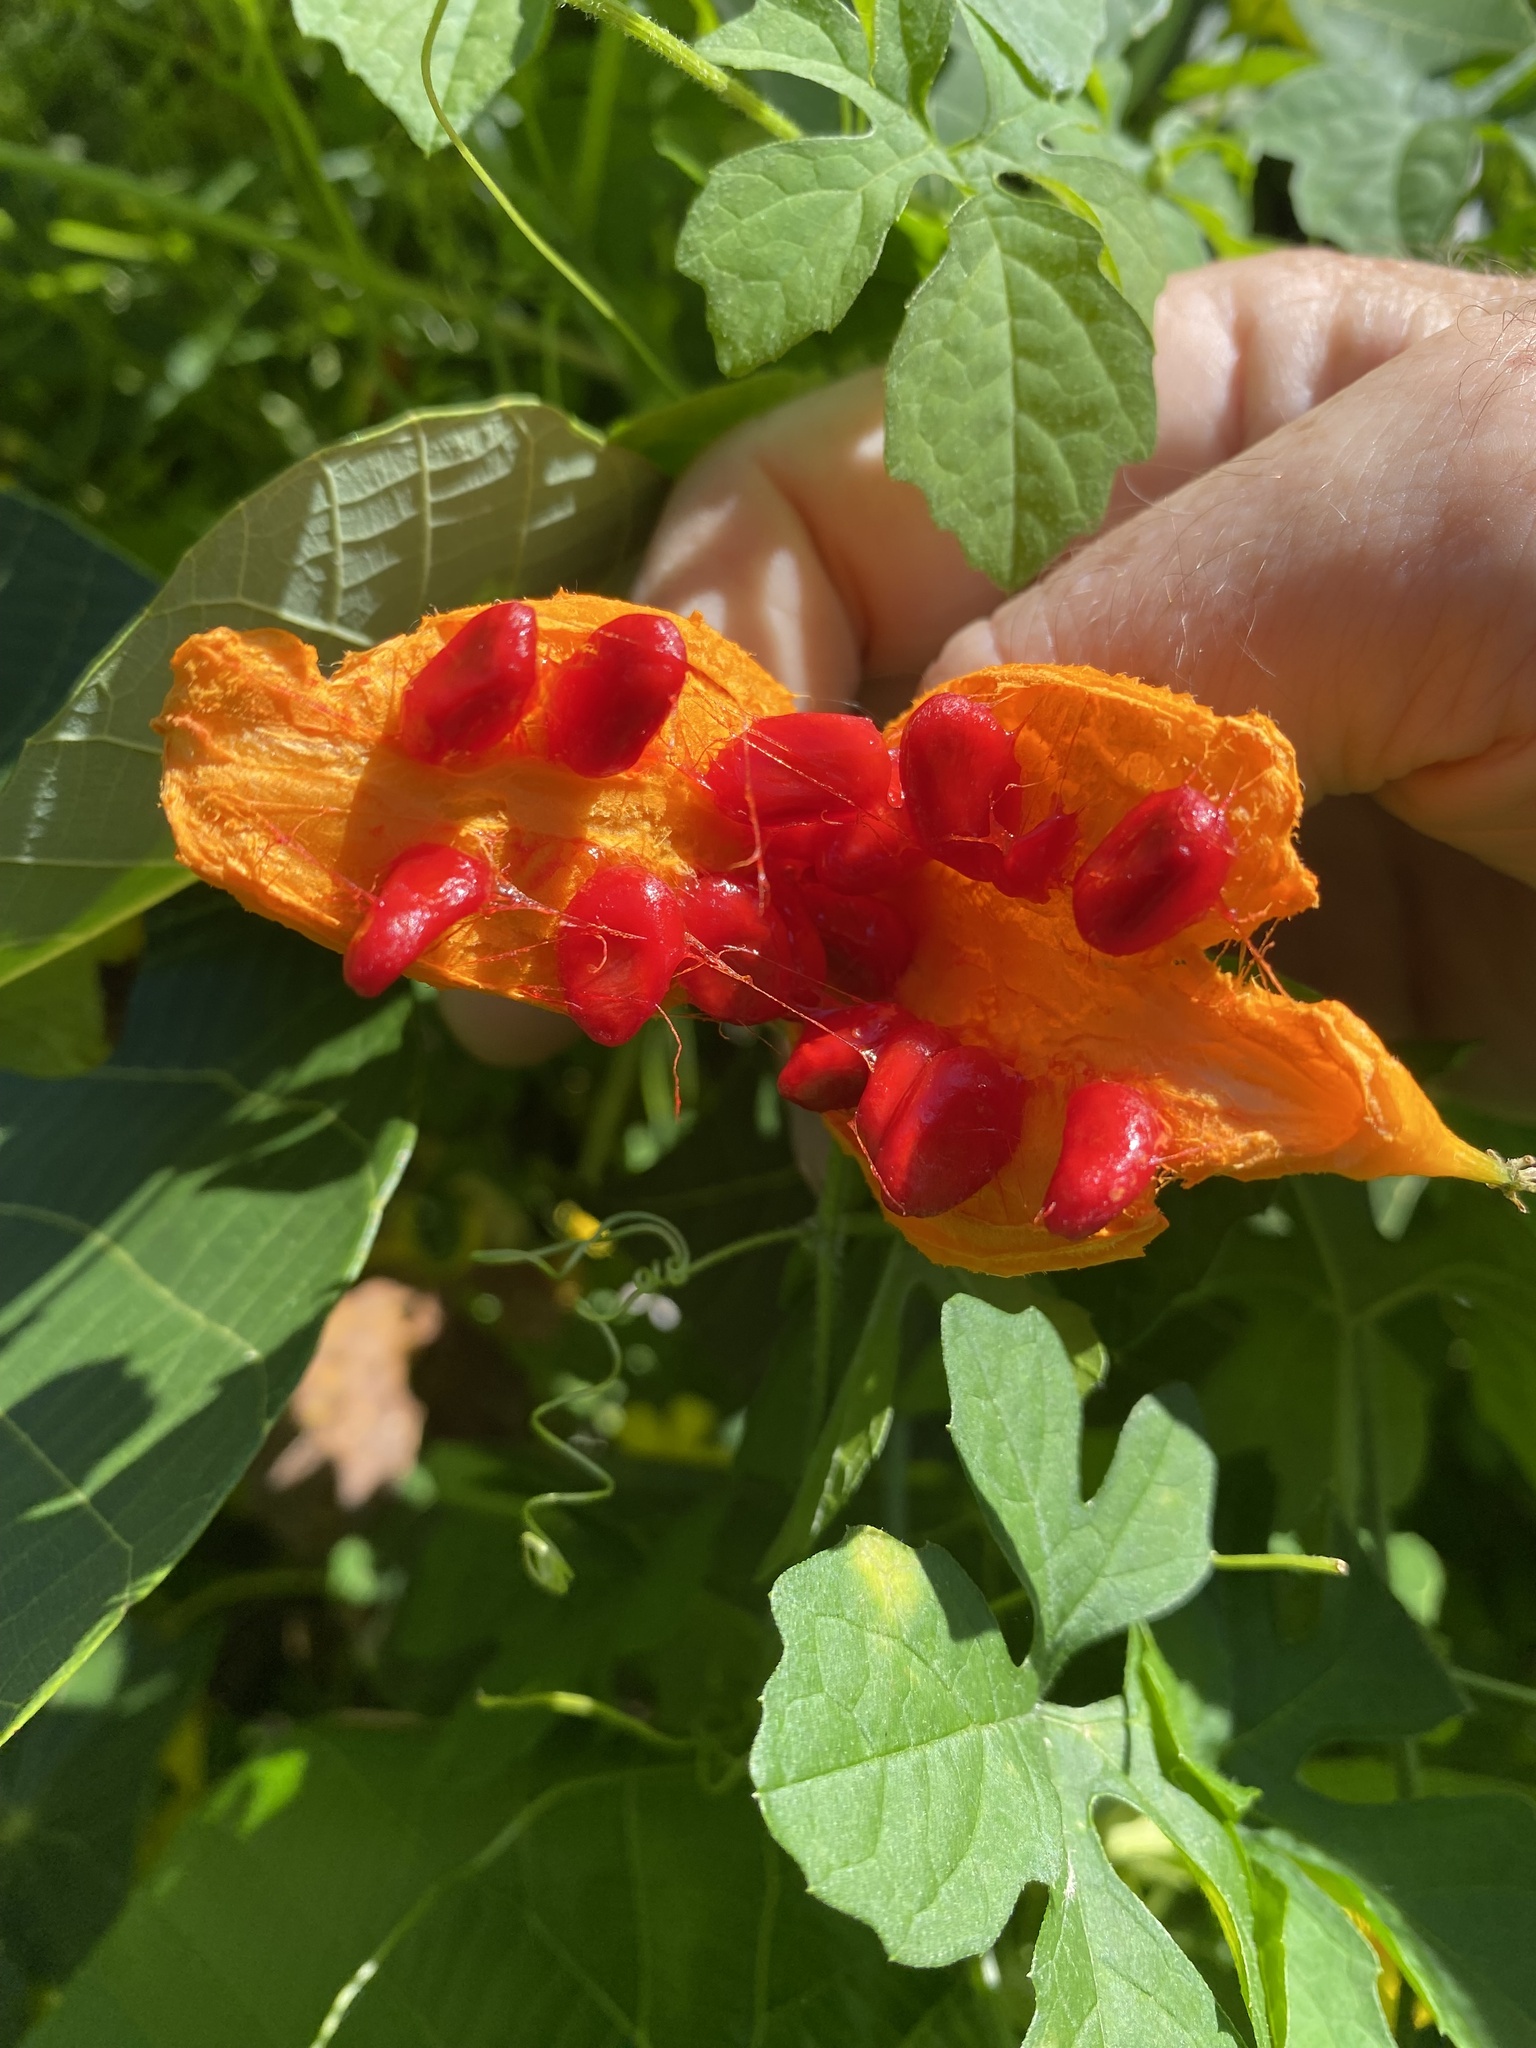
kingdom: Plantae
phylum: Tracheophyta
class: Magnoliopsida
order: Cucurbitales
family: Cucurbitaceae
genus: Momordica
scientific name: Momordica charantia
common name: Balsampear
